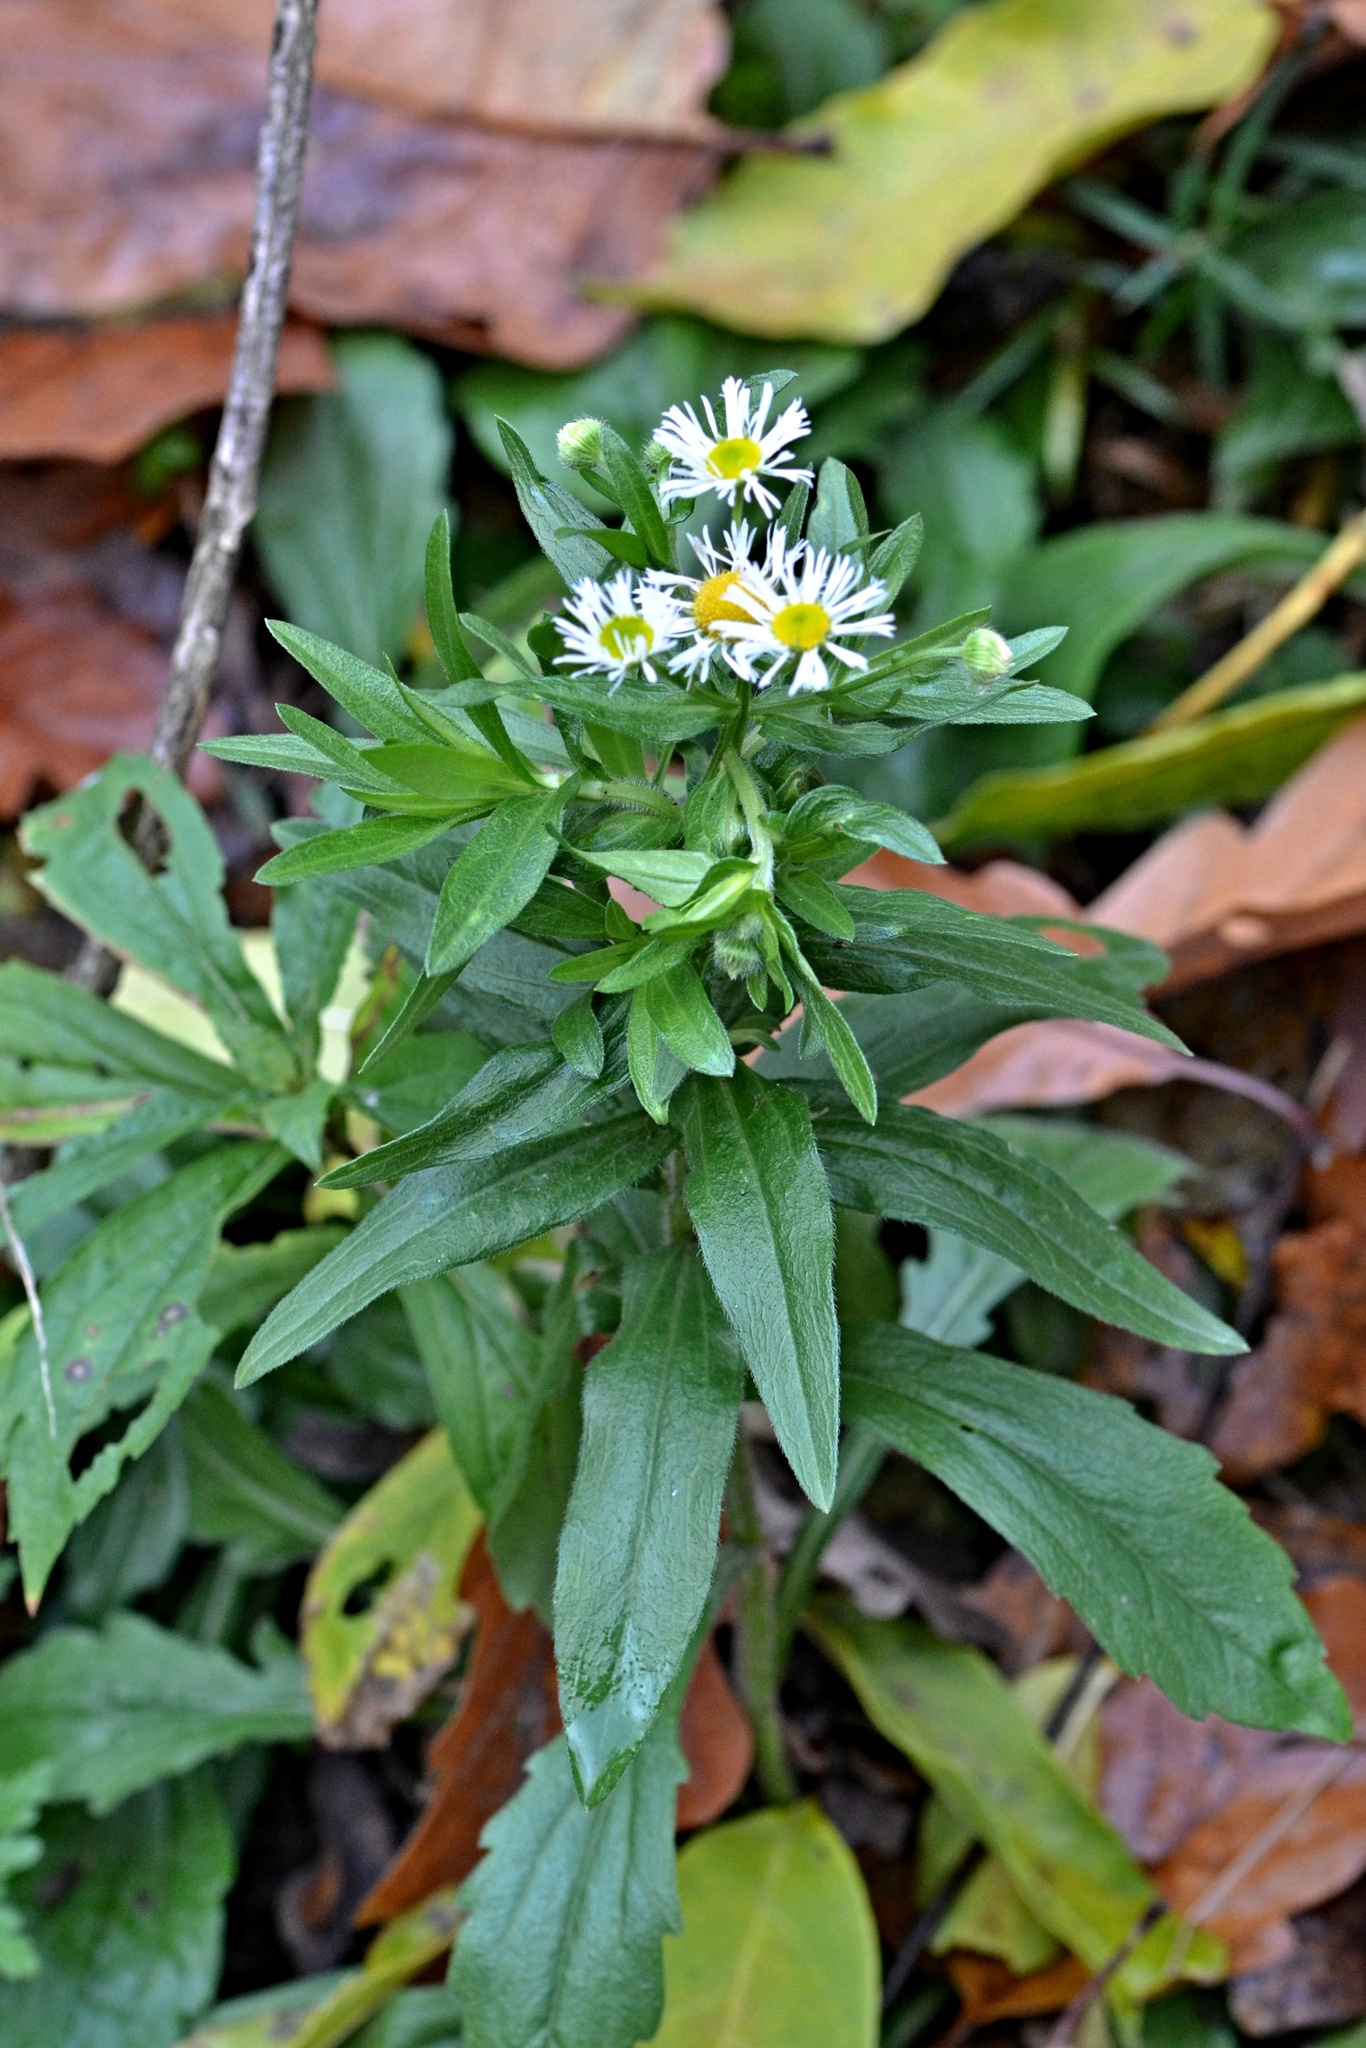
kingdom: Plantae
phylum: Tracheophyta
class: Magnoliopsida
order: Asterales
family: Asteraceae
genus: Erigeron
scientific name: Erigeron annuus
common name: Tall fleabane
